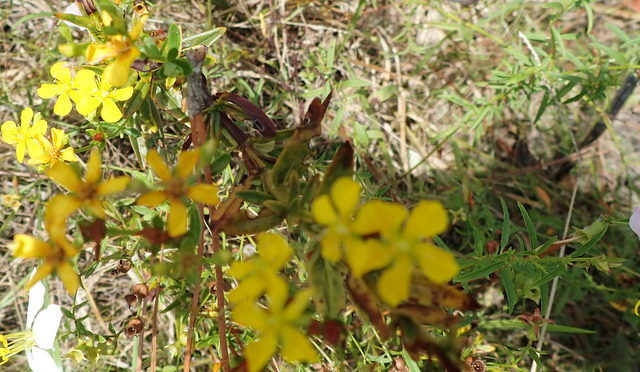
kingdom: Plantae
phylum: Tracheophyta
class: Magnoliopsida
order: Malpighiales
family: Hypericaceae
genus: Hypericum
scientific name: Hypericum cistifolium
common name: Round-pod st. john's-wort
